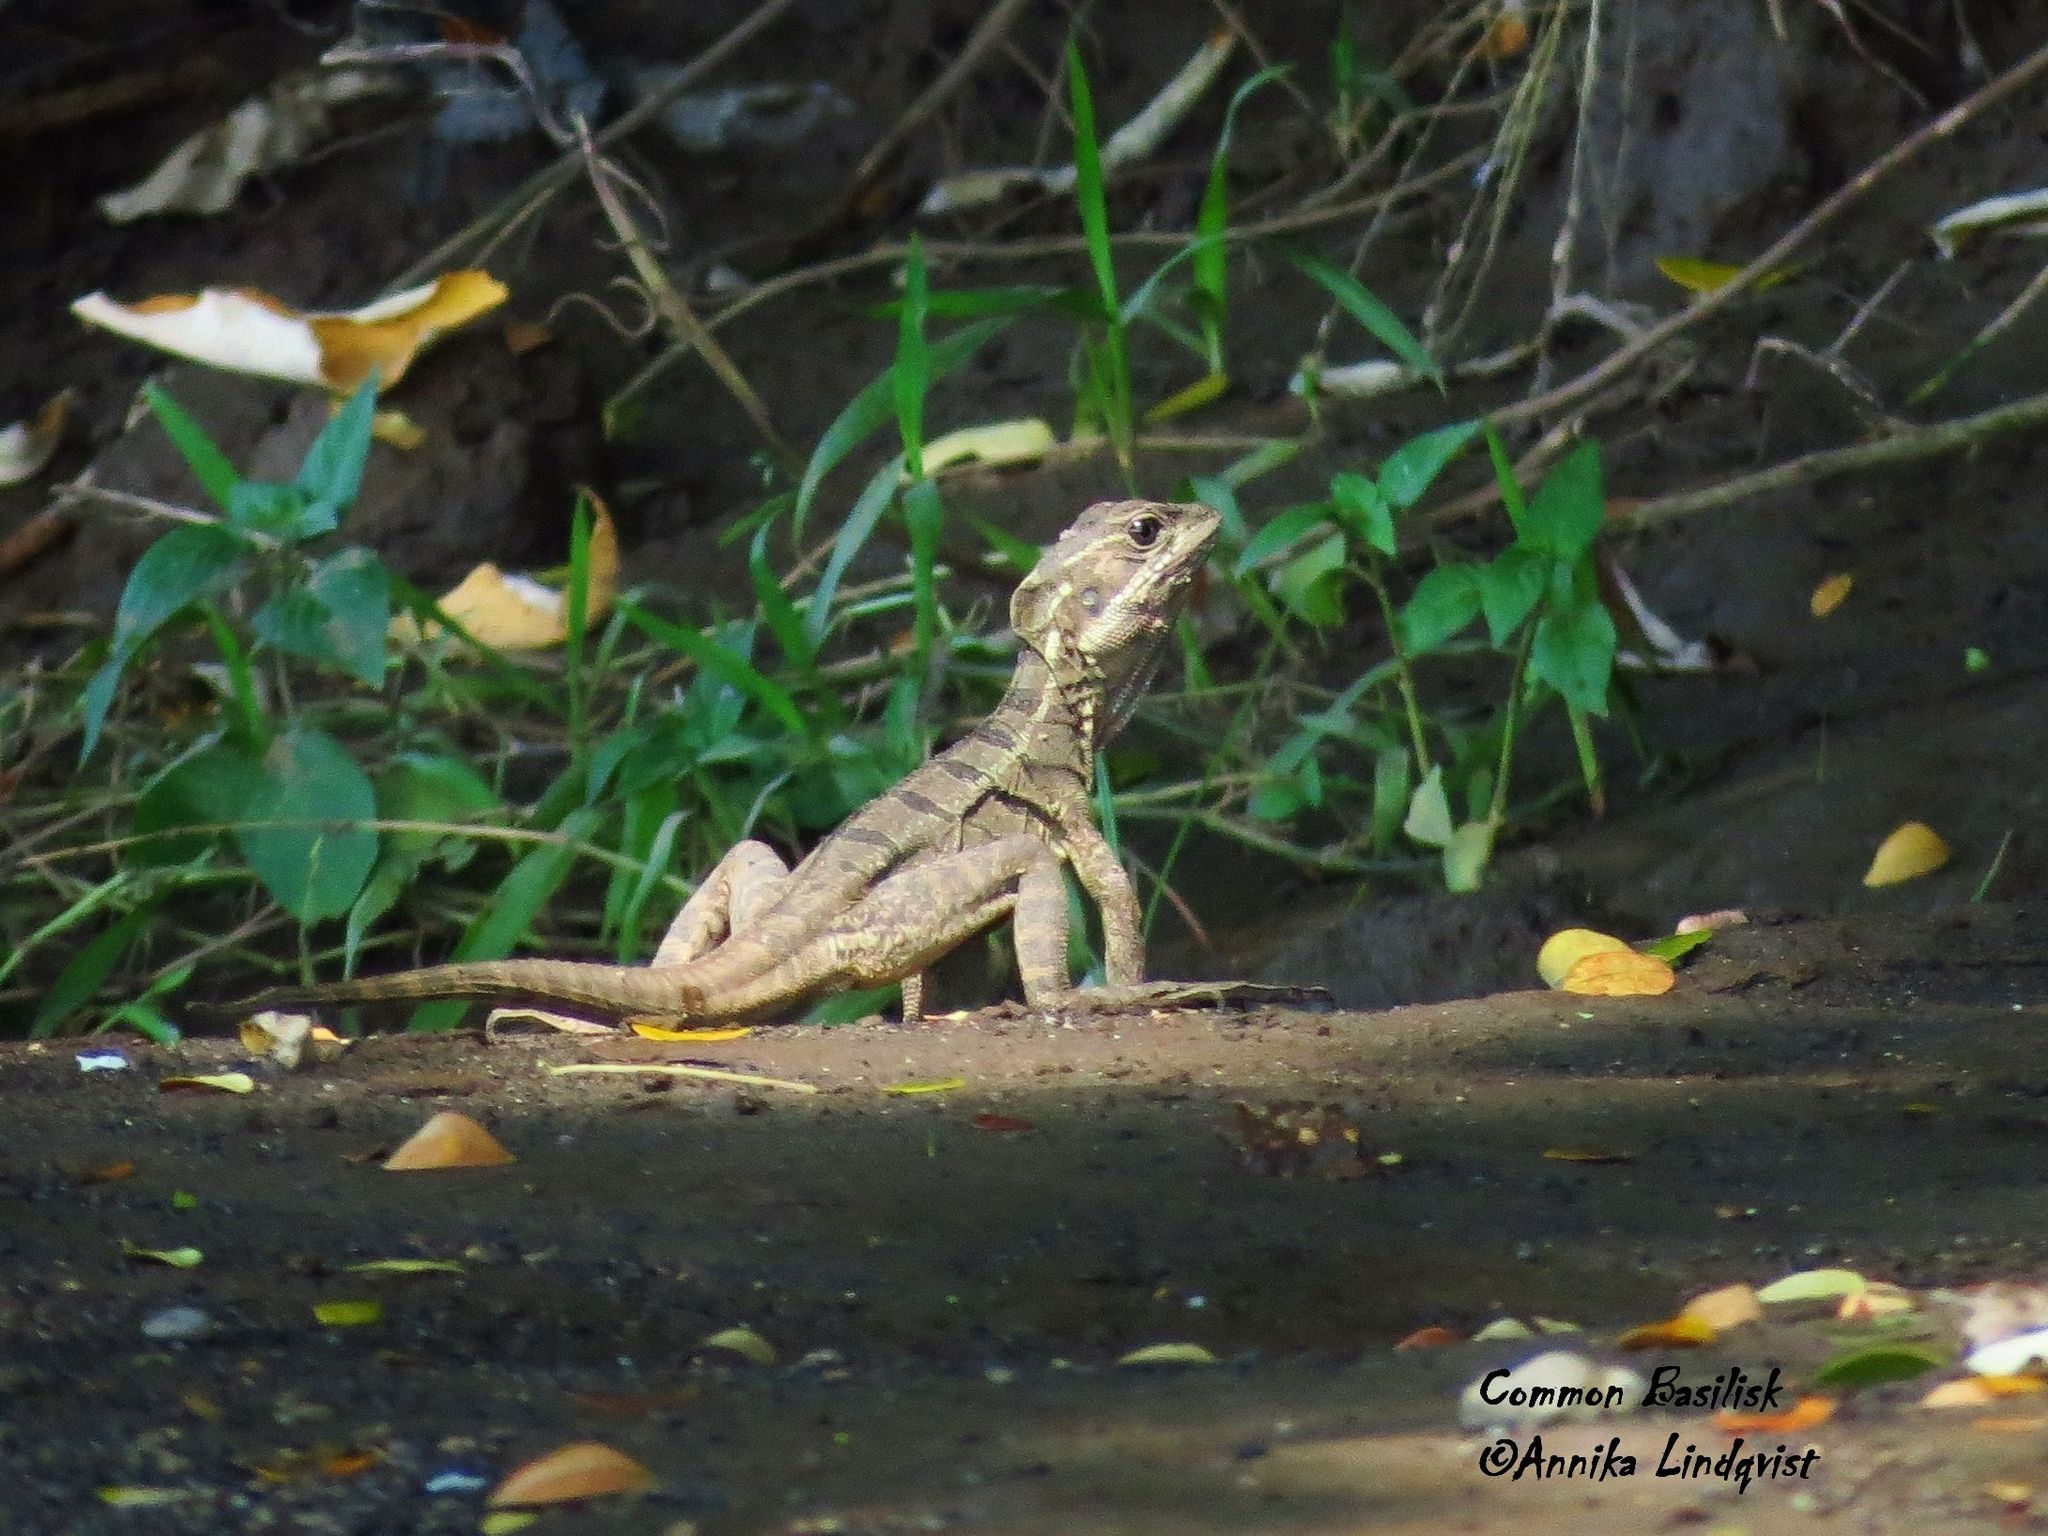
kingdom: Animalia
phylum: Chordata
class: Squamata
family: Corytophanidae
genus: Basiliscus
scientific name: Basiliscus basiliscus
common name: Common basilisk
